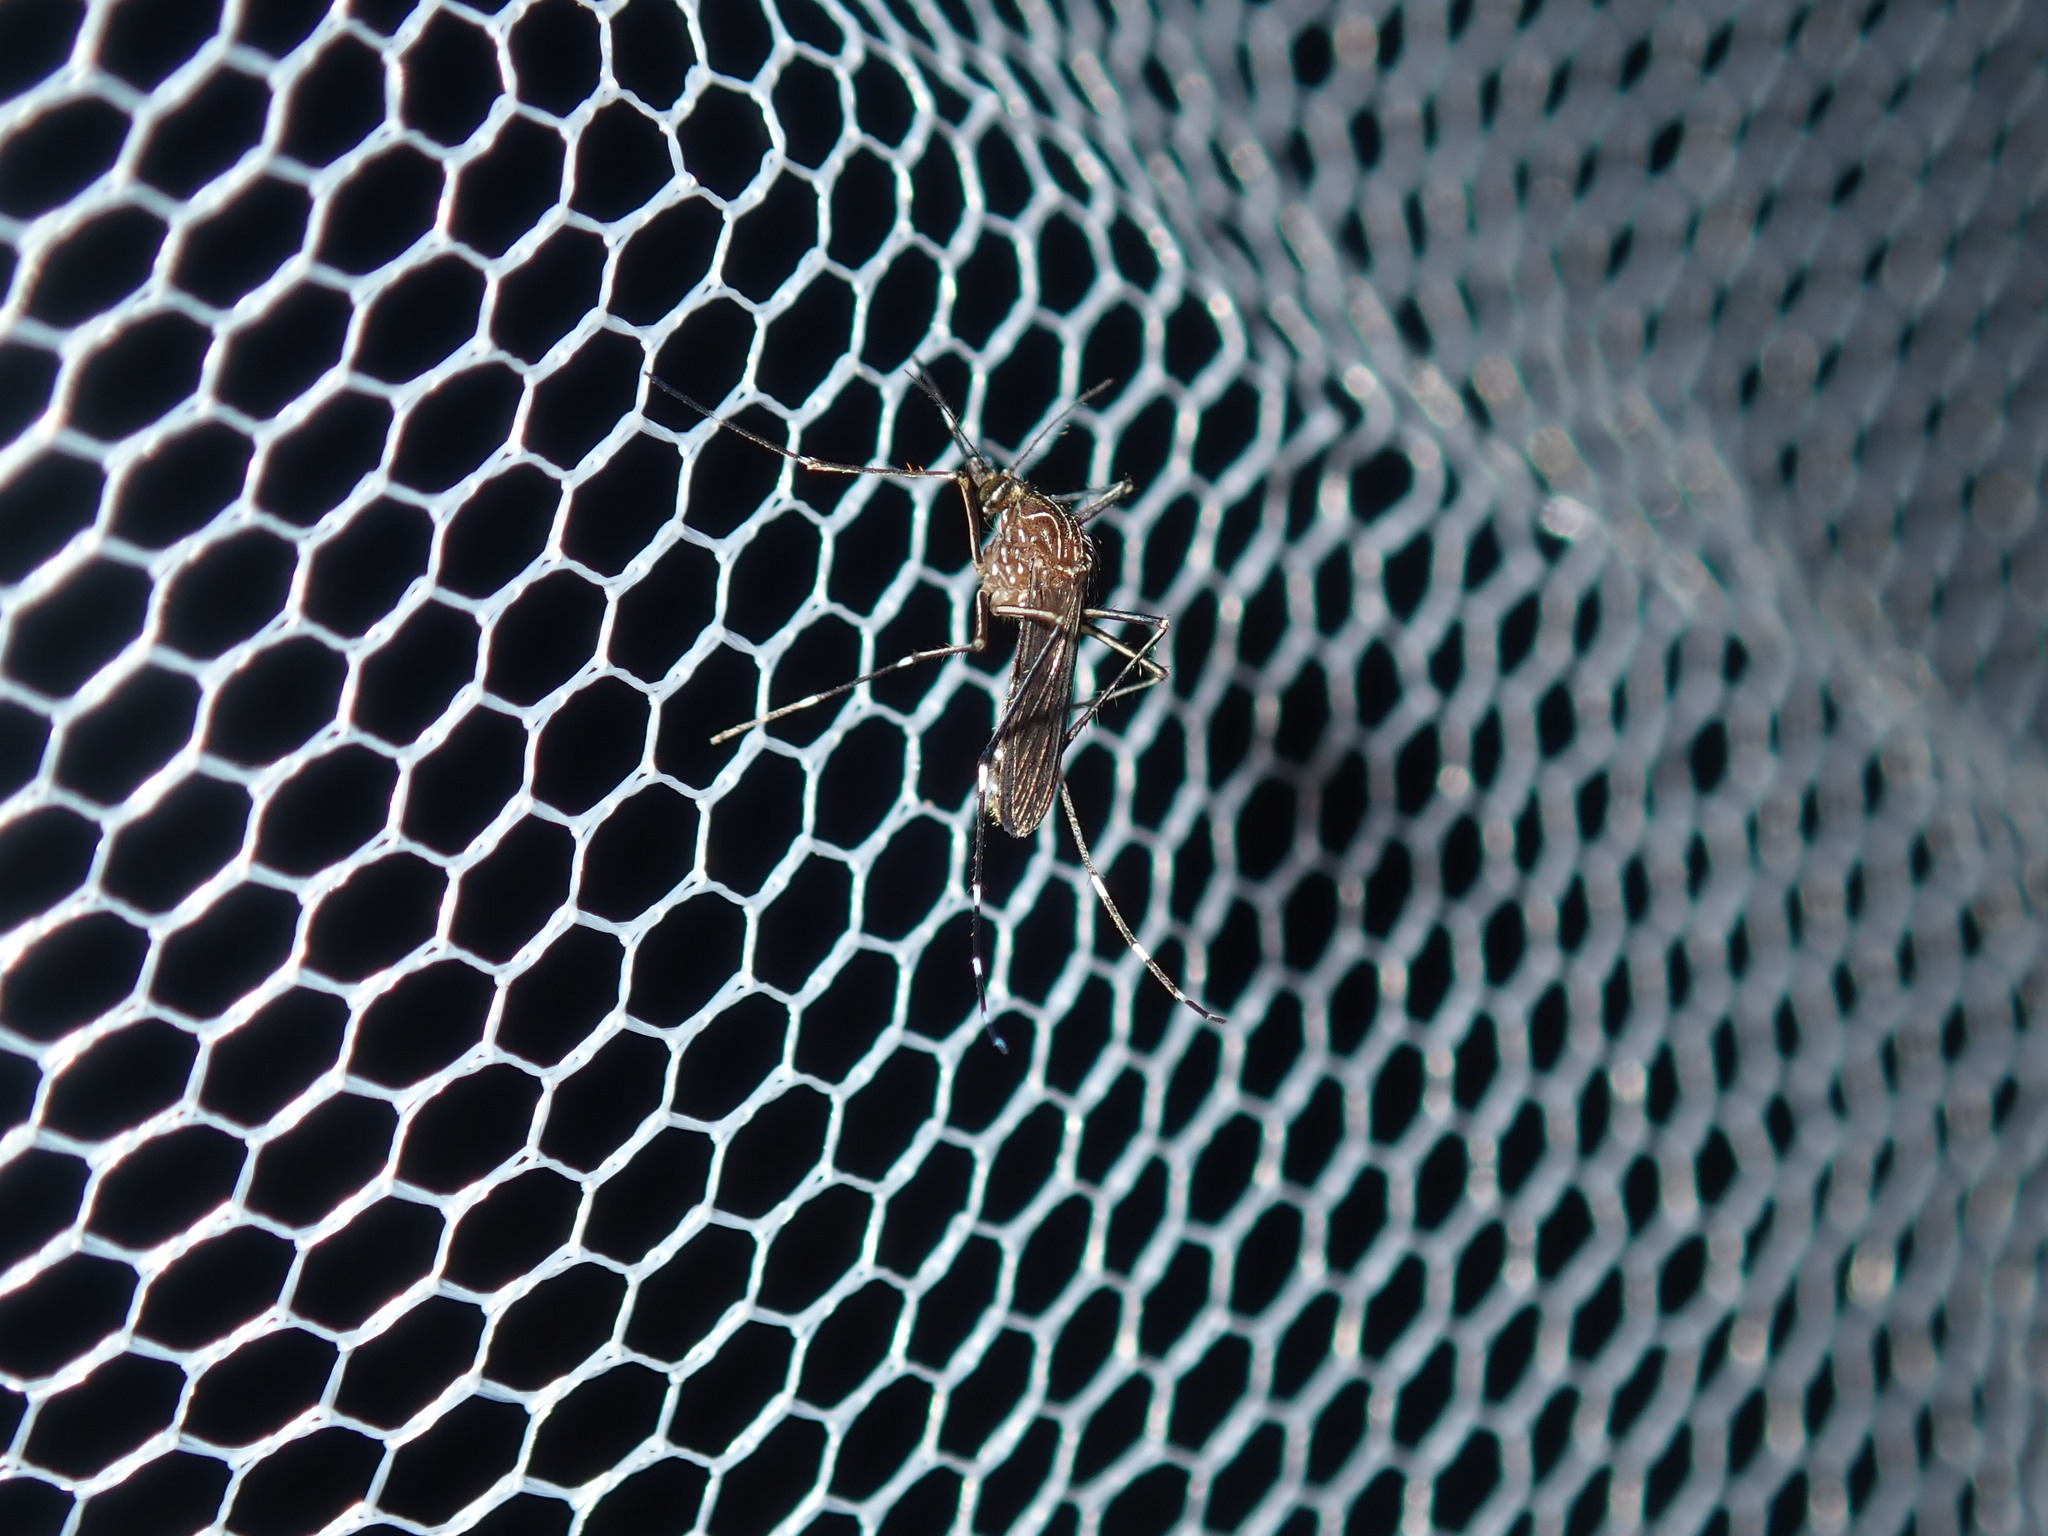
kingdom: Animalia
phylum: Arthropoda
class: Insecta
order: Diptera
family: Culicidae
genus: Aedes
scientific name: Aedes notoscriptus
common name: Australian backyard mosquito
